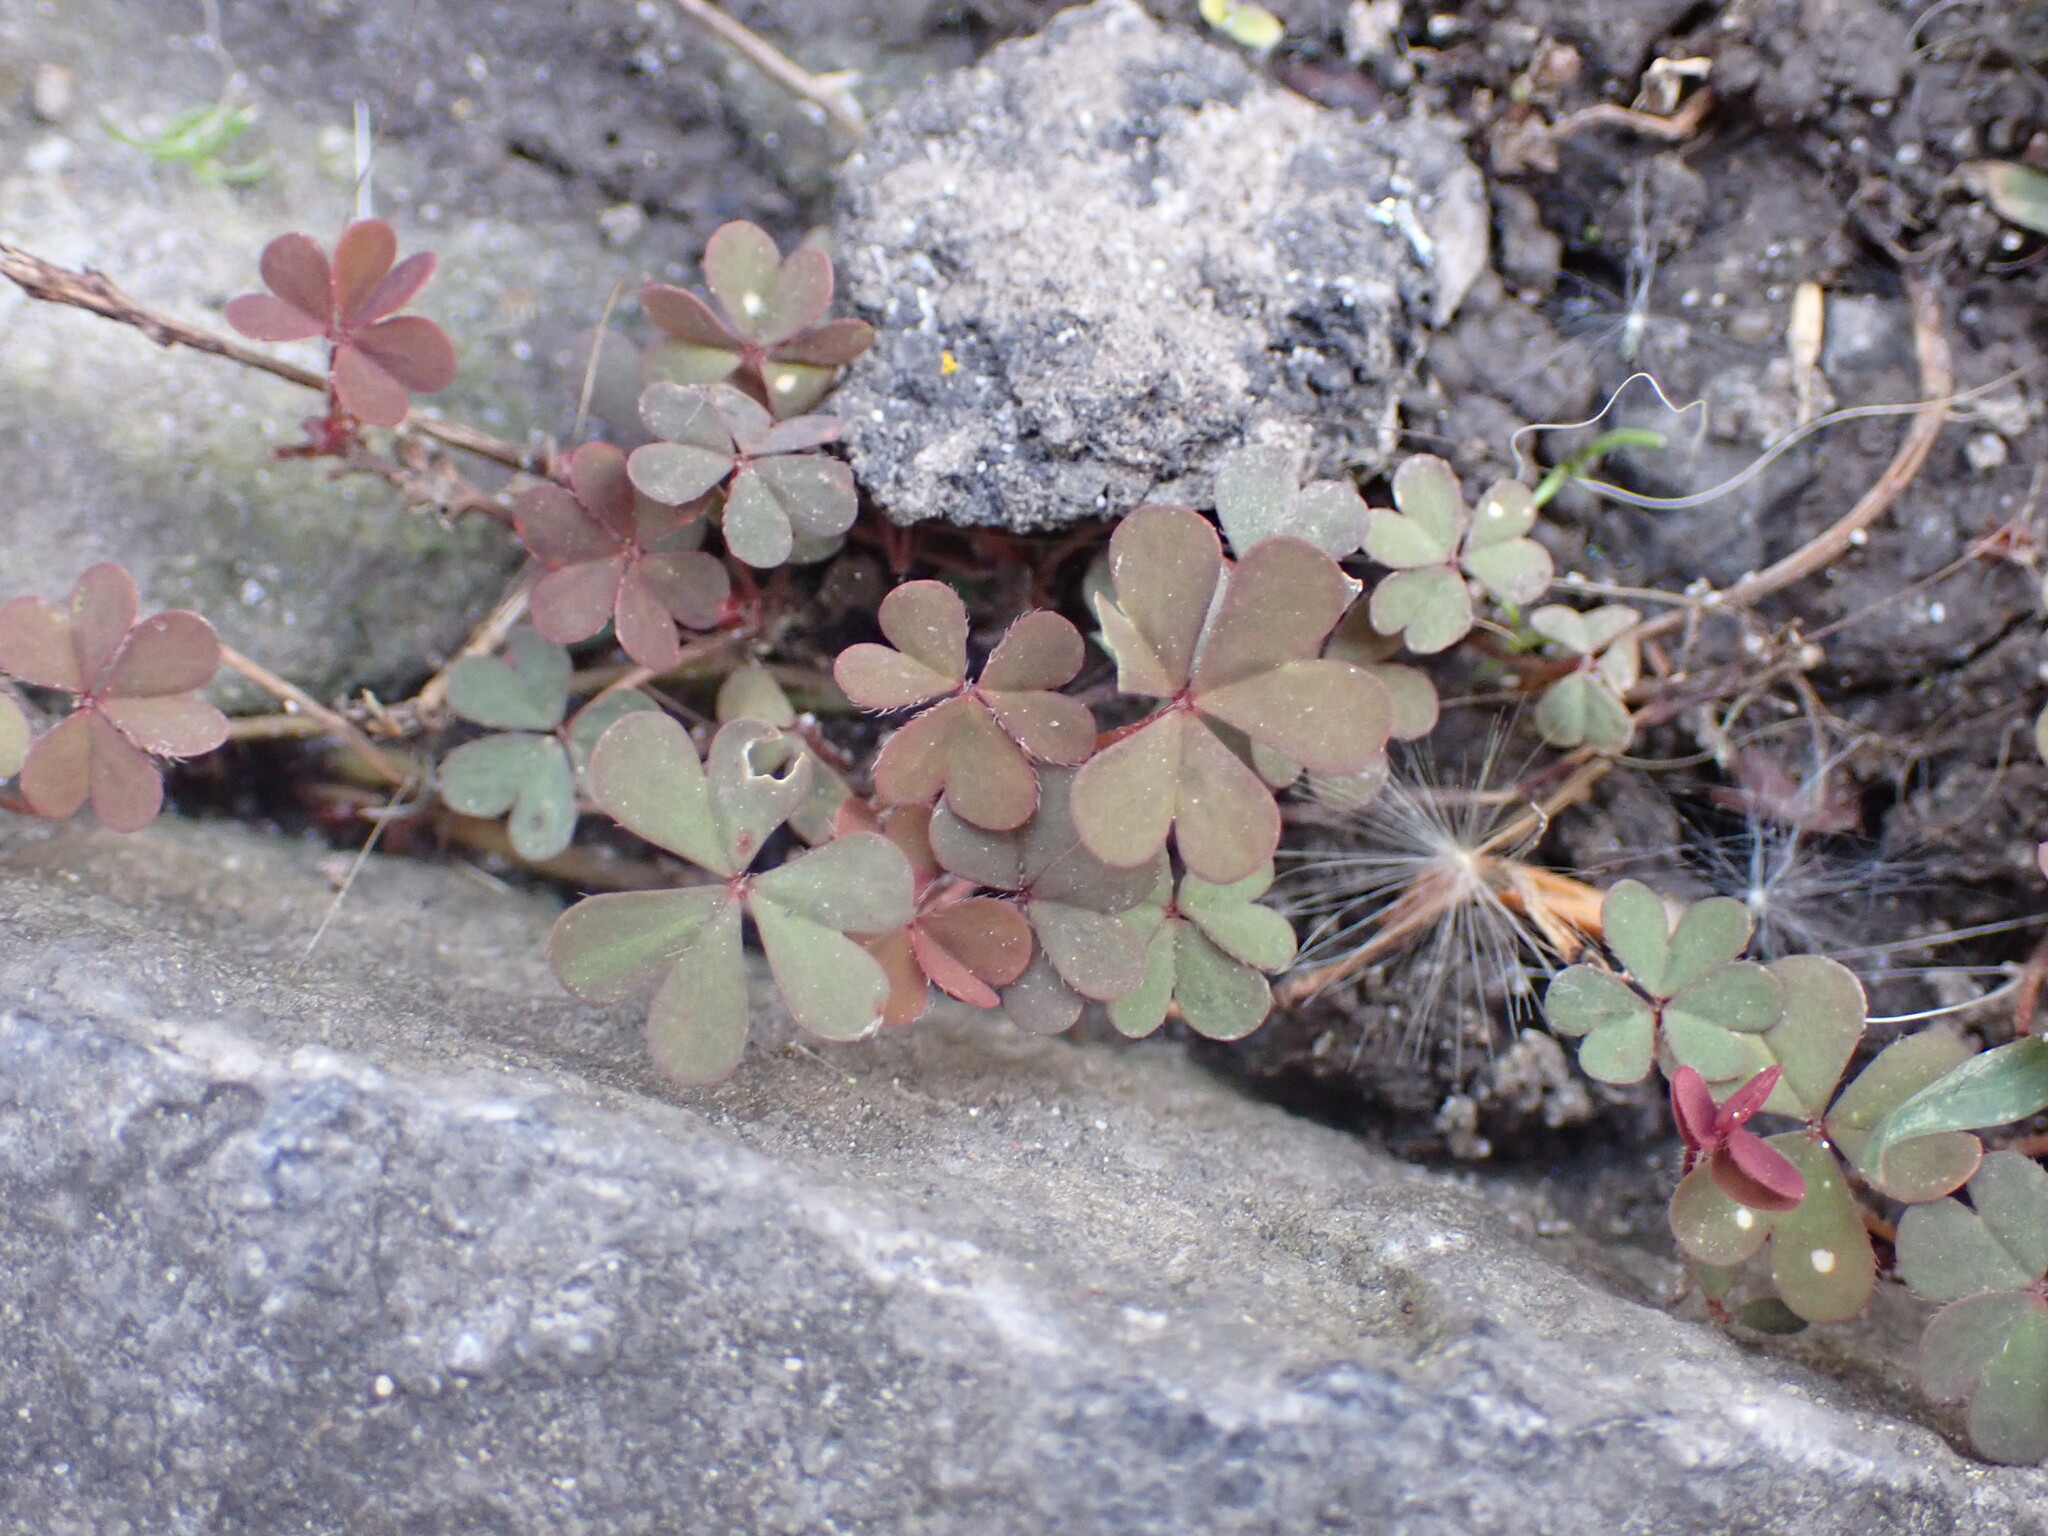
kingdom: Plantae
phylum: Tracheophyta
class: Magnoliopsida
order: Oxalidales
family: Oxalidaceae
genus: Oxalis
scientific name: Oxalis corniculata
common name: Procumbent yellow-sorrel
